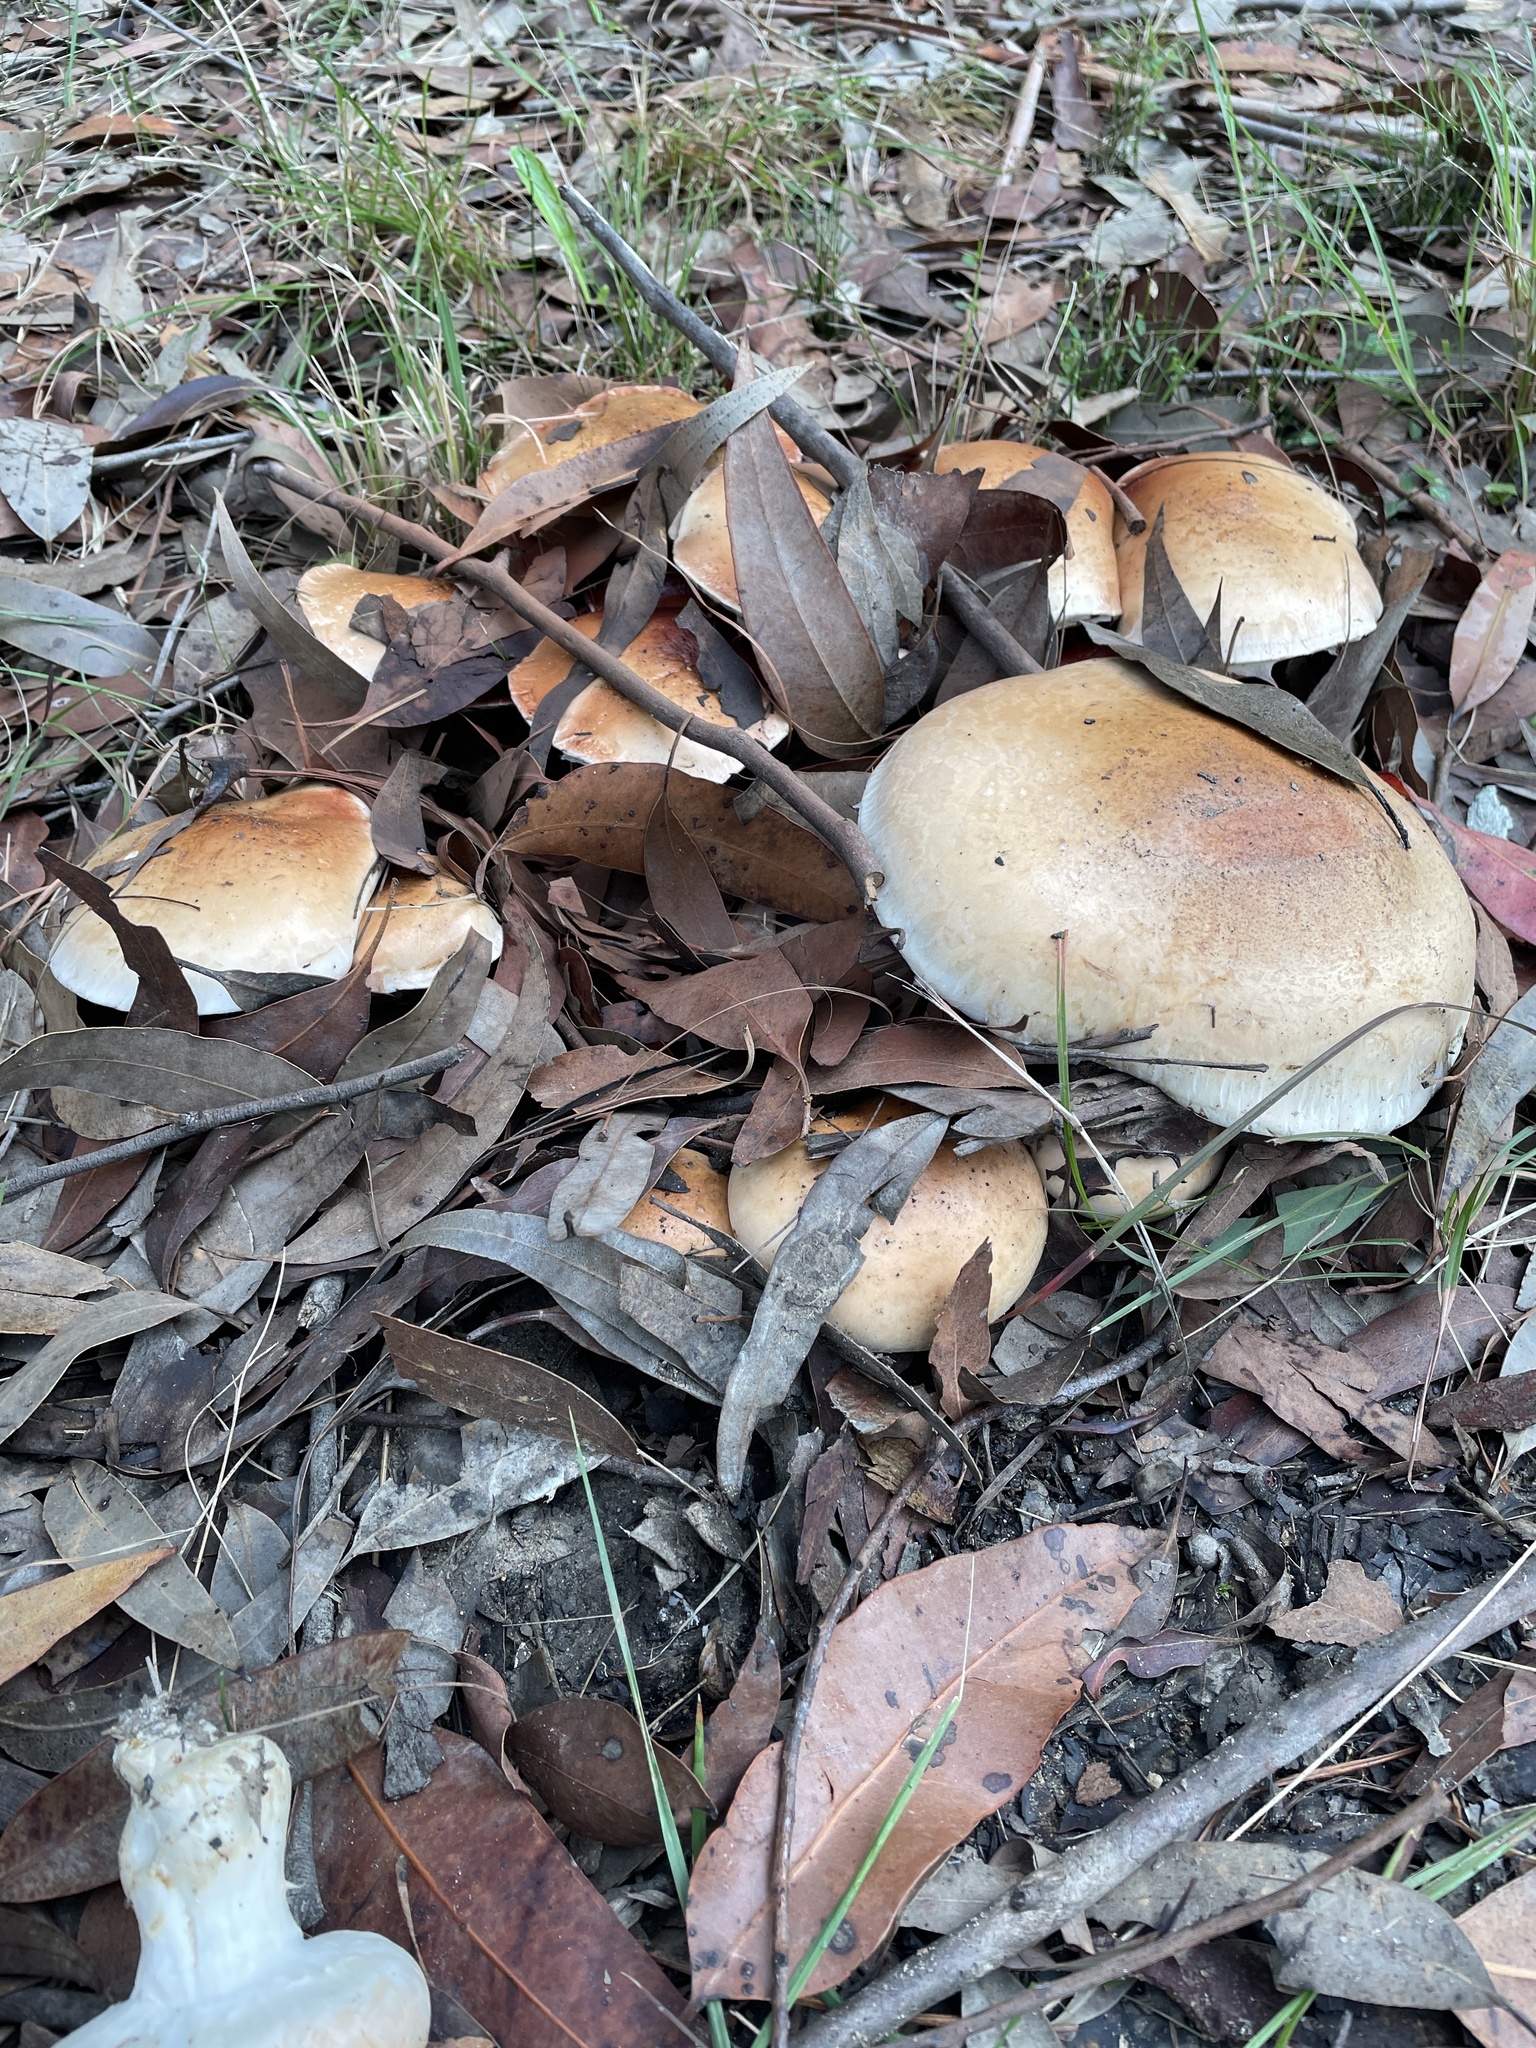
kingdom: Fungi
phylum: Basidiomycota
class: Agaricomycetes
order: Agaricales
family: Hymenogastraceae
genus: Hebeloma
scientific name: Hebeloma victoriense
